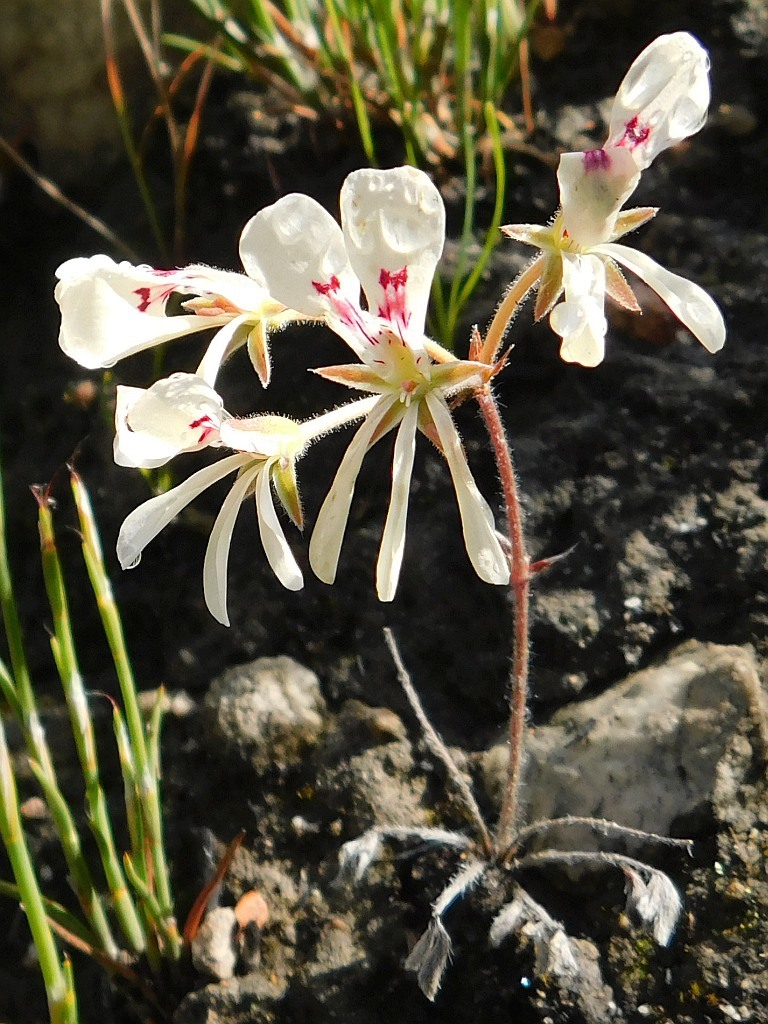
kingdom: Plantae
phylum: Tracheophyta
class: Magnoliopsida
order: Geraniales
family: Geraniaceae
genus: Pelargonium
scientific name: Pelargonium pinnatum
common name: Pinnated pelargonium
